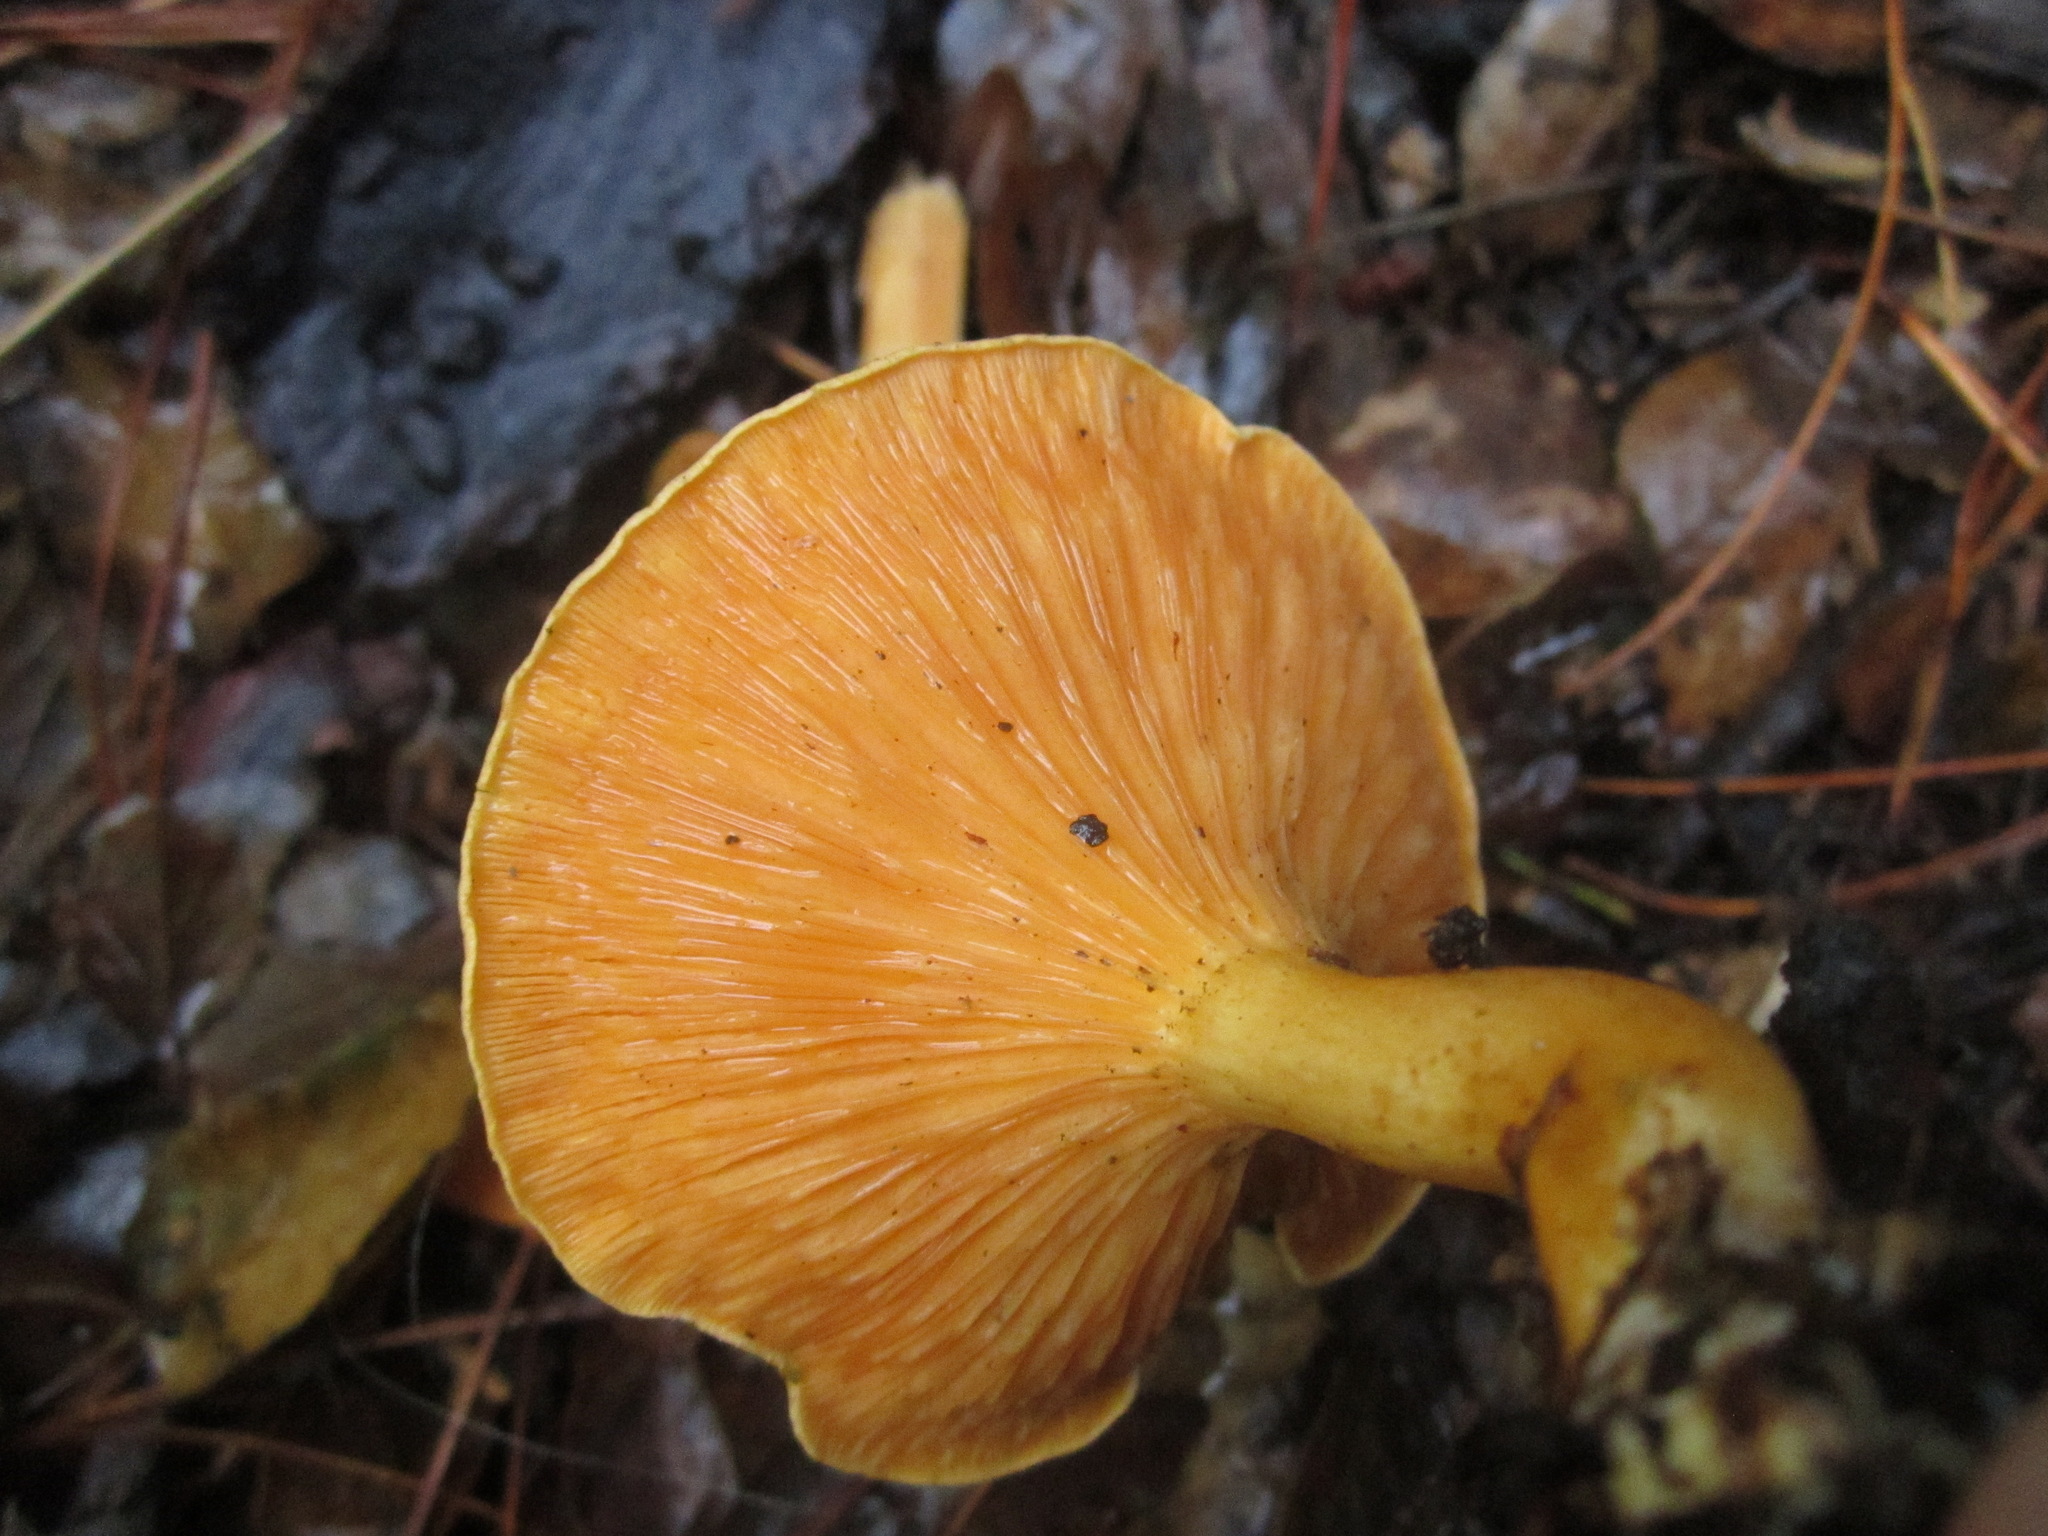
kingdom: Fungi
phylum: Basidiomycota
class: Agaricomycetes
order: Boletales
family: Hygrophoropsidaceae
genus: Hygrophoropsis
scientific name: Hygrophoropsis aurantiaca
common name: False chanterelle
